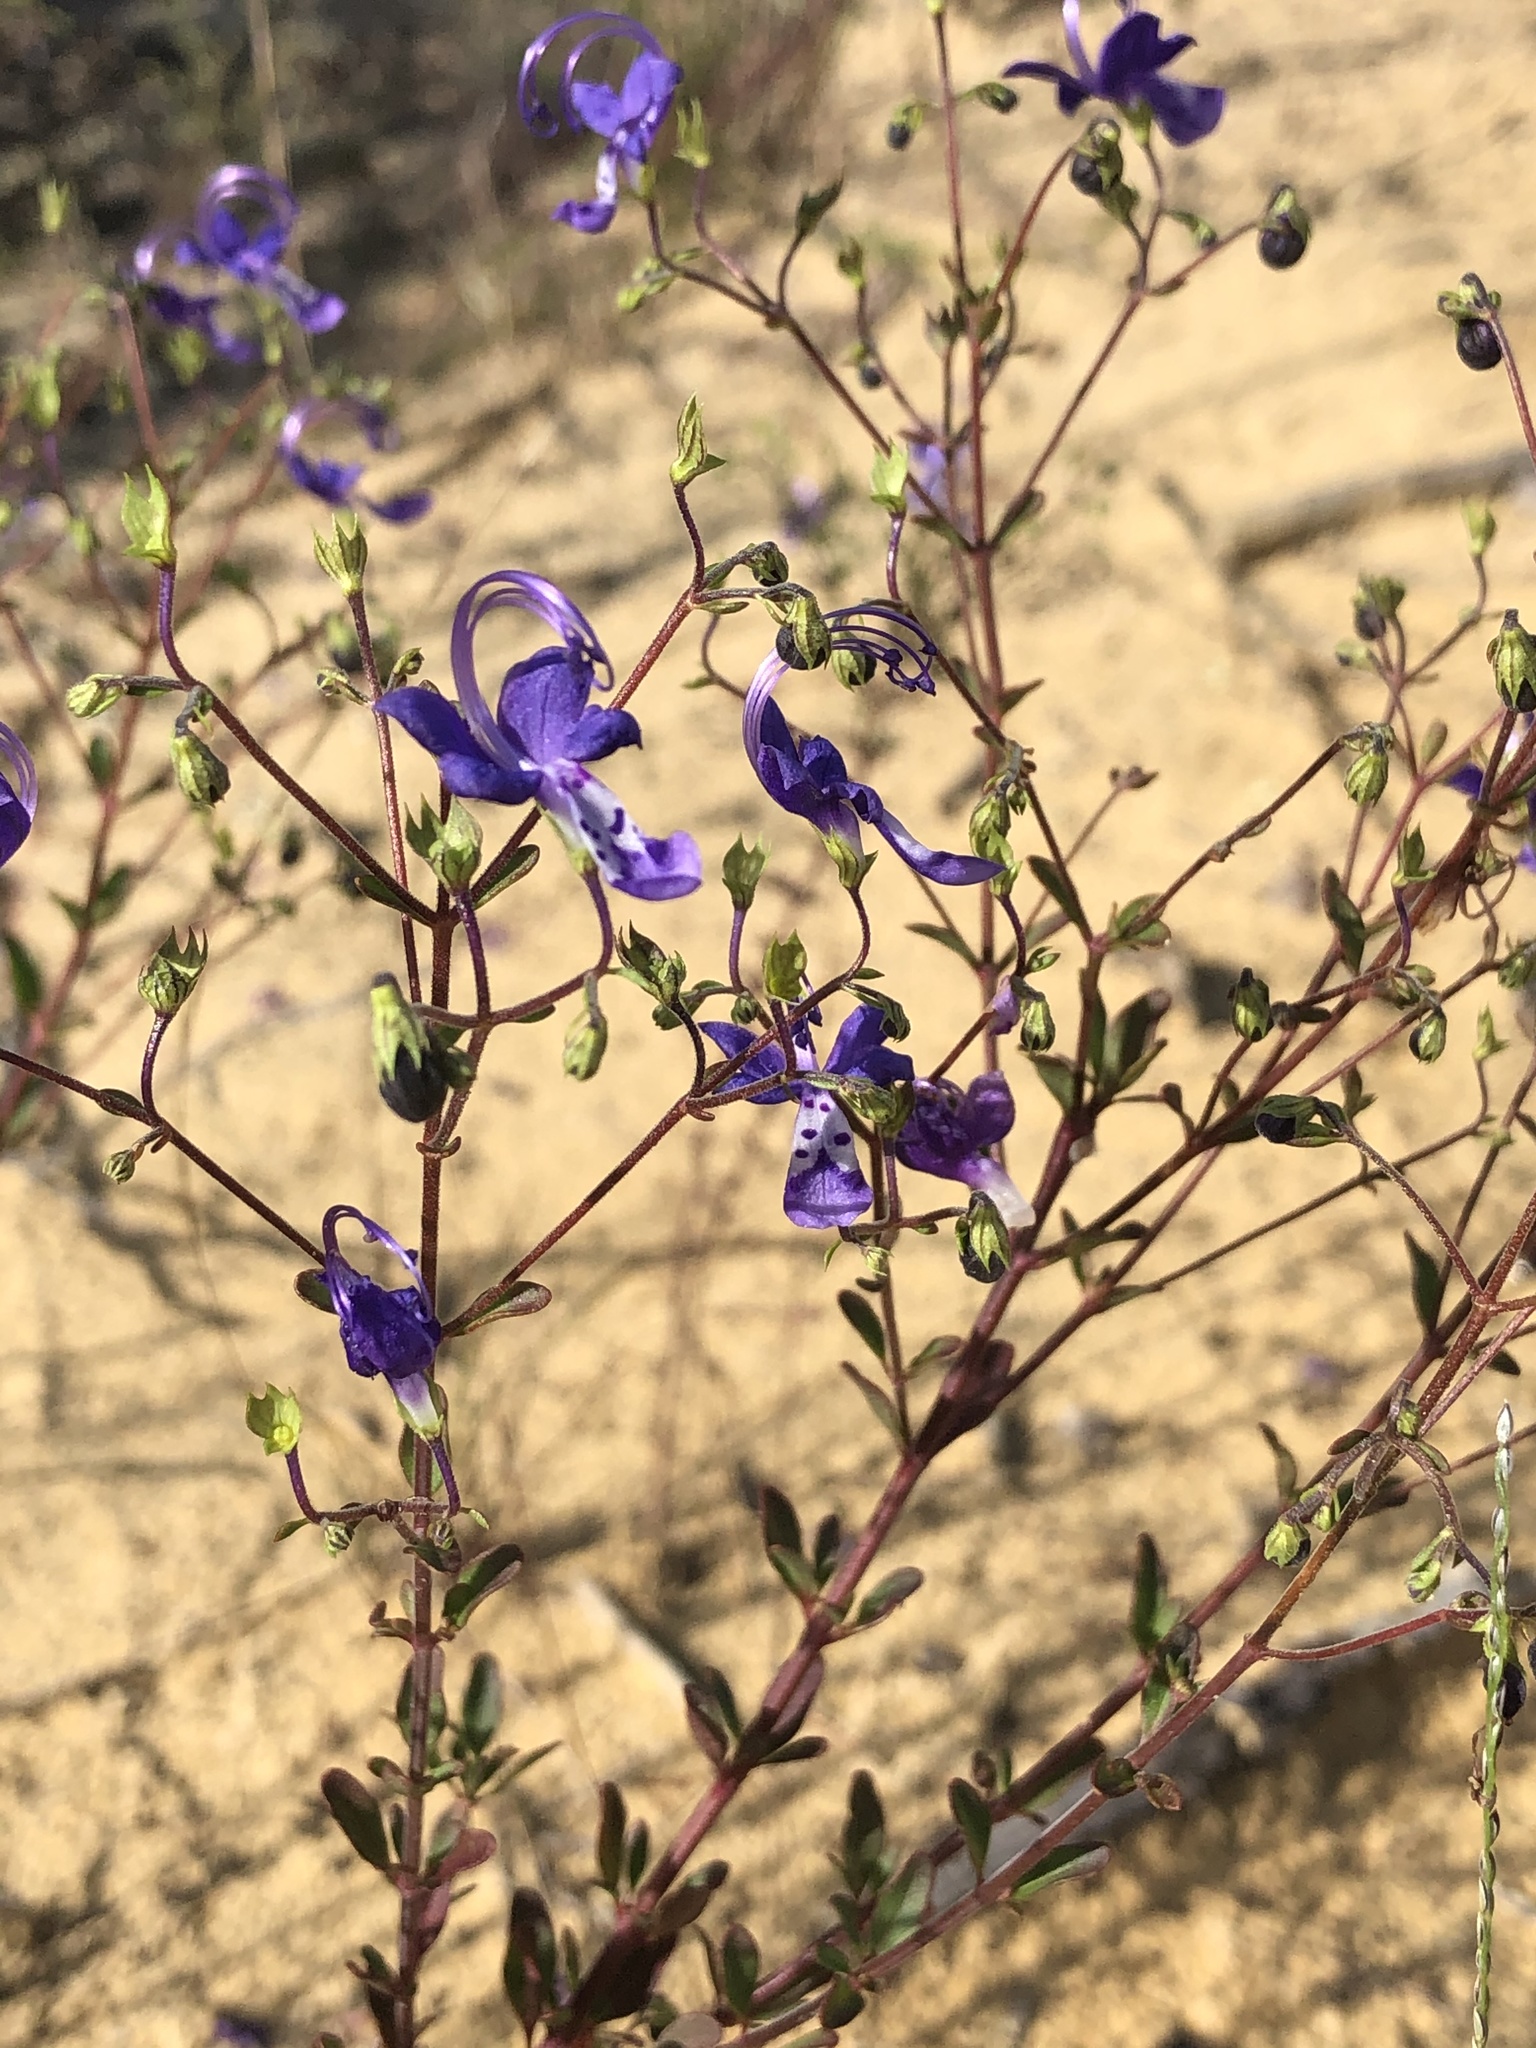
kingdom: Plantae
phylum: Tracheophyta
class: Magnoliopsida
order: Lamiales
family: Lamiaceae
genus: Trichostema
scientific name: Trichostema suffrutescens
